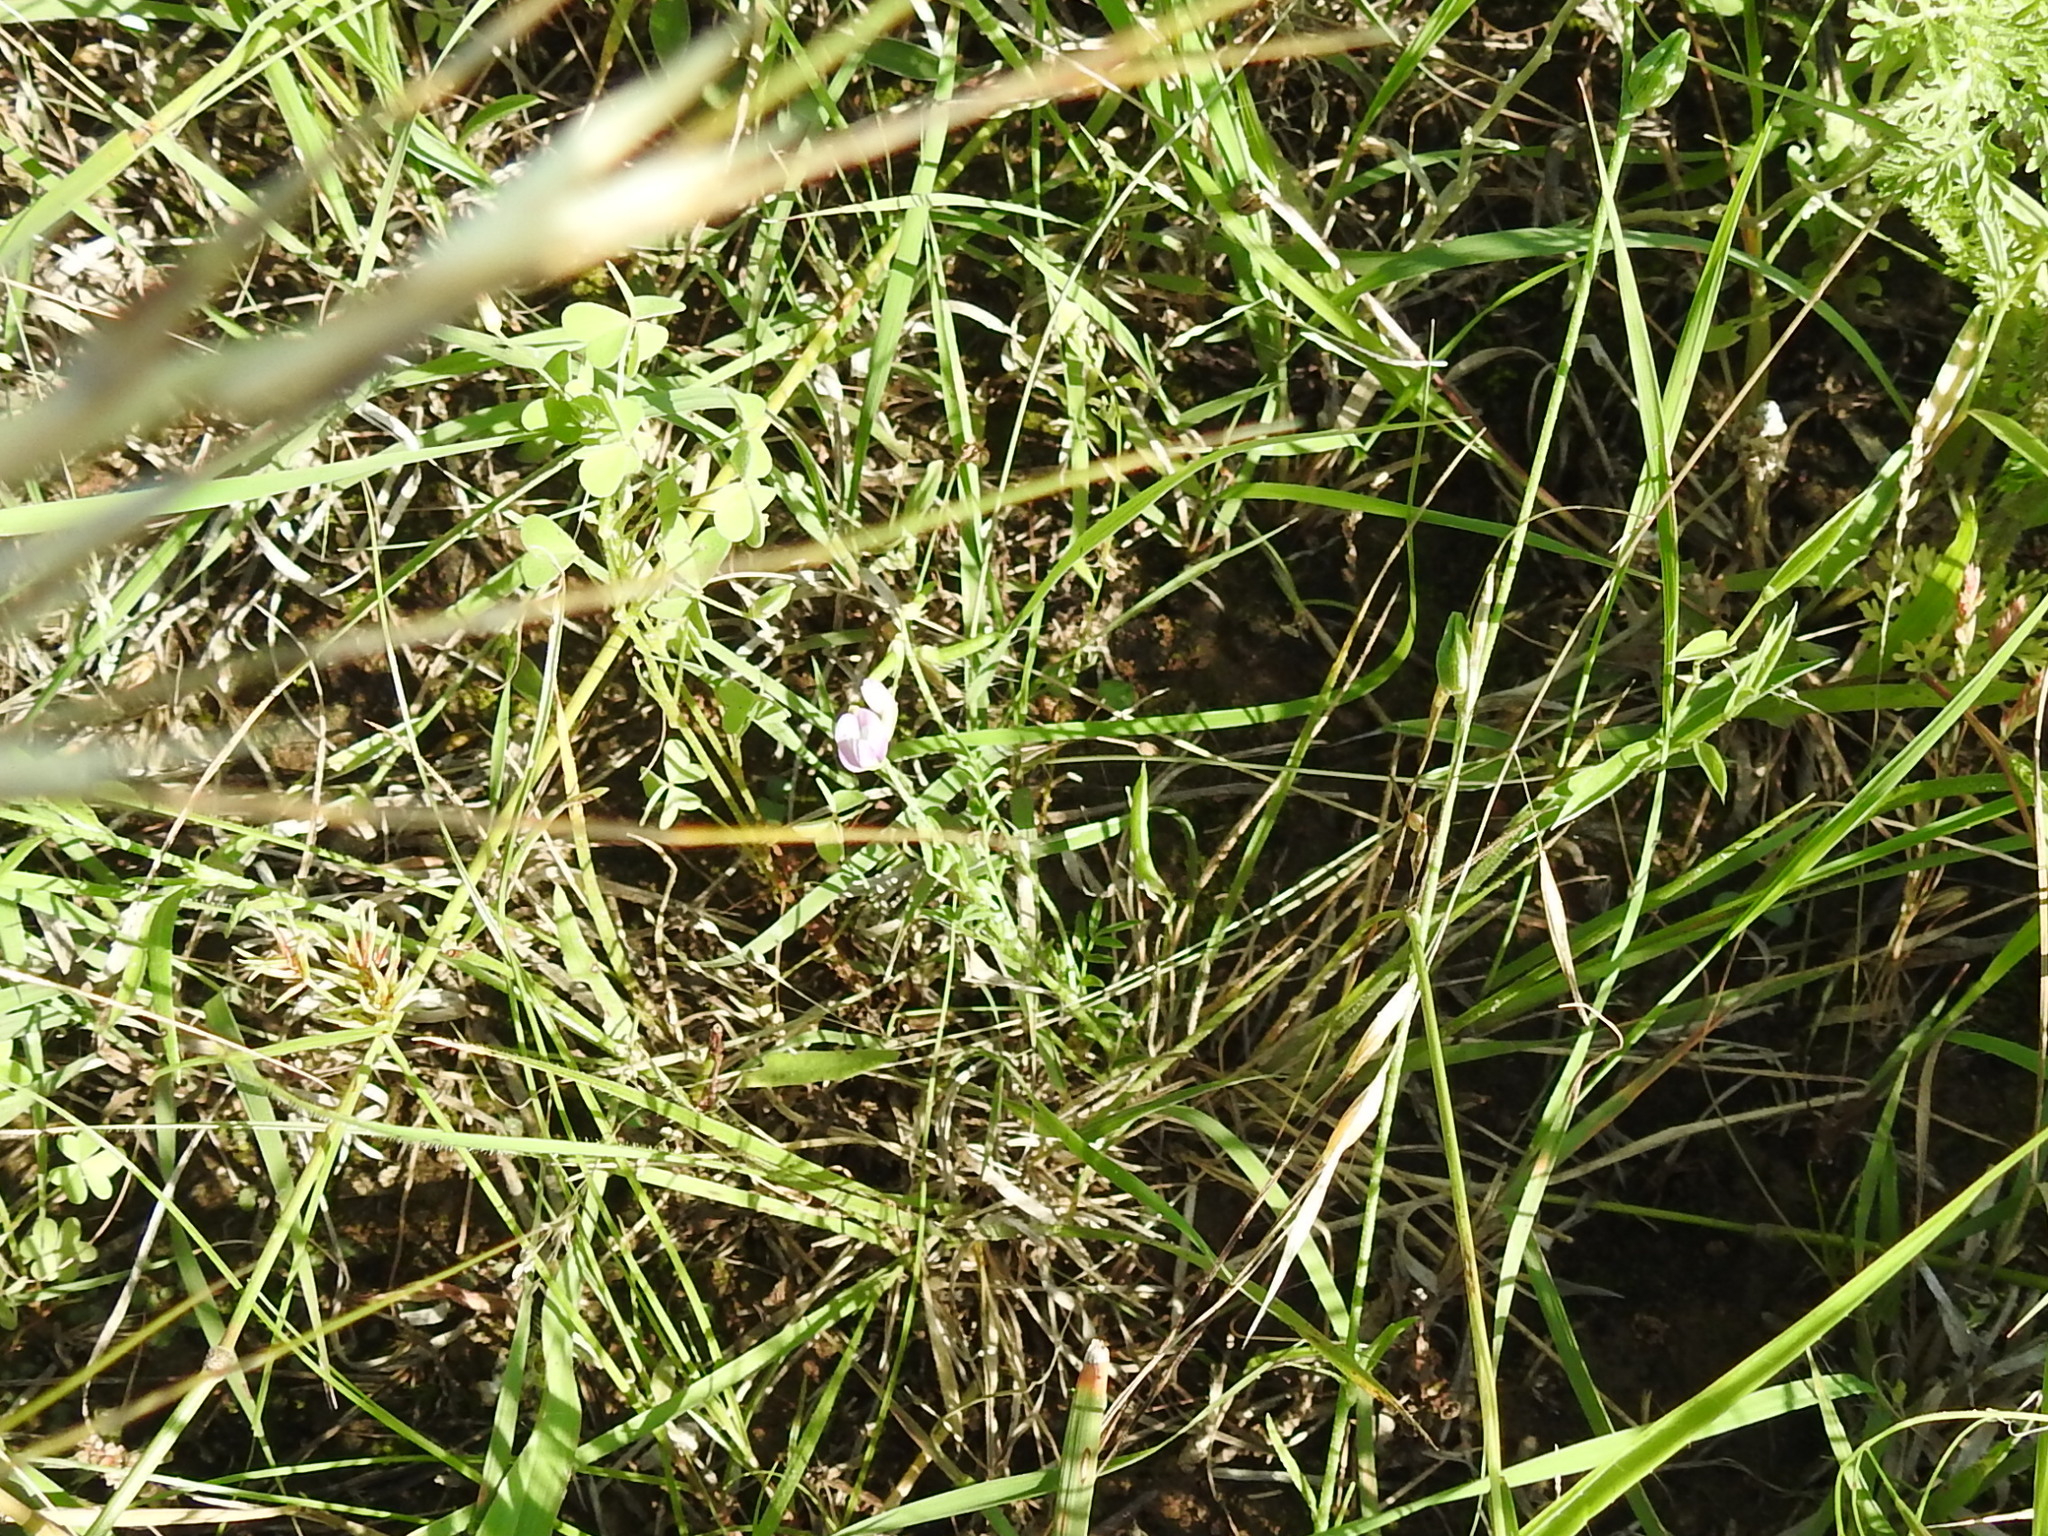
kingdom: Plantae
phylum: Tracheophyta
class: Magnoliopsida
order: Fabales
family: Fabaceae
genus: Astragalus
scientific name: Astragalus nuttallianus
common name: Smallflowered milkvetch
